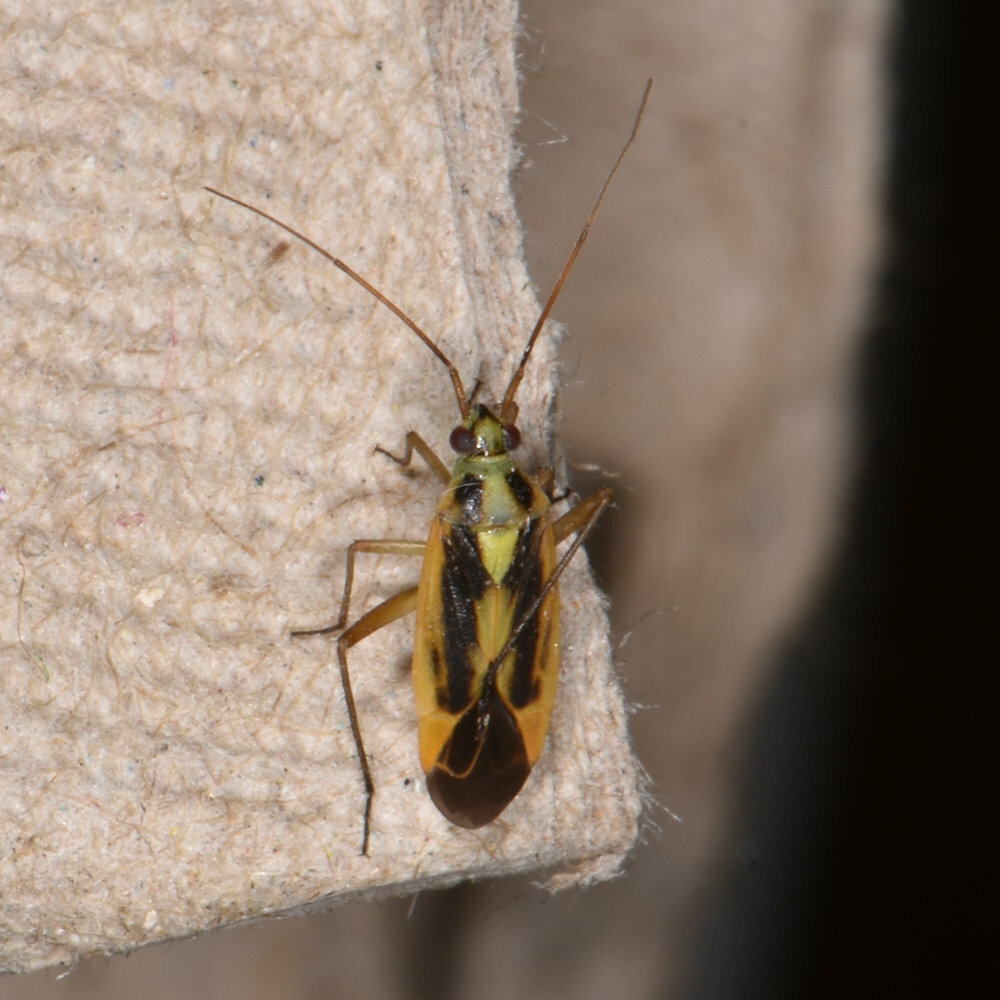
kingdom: Animalia
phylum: Arthropoda
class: Insecta
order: Hemiptera
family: Miridae
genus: Stenotus
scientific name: Stenotus binotatus
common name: Plant bug
